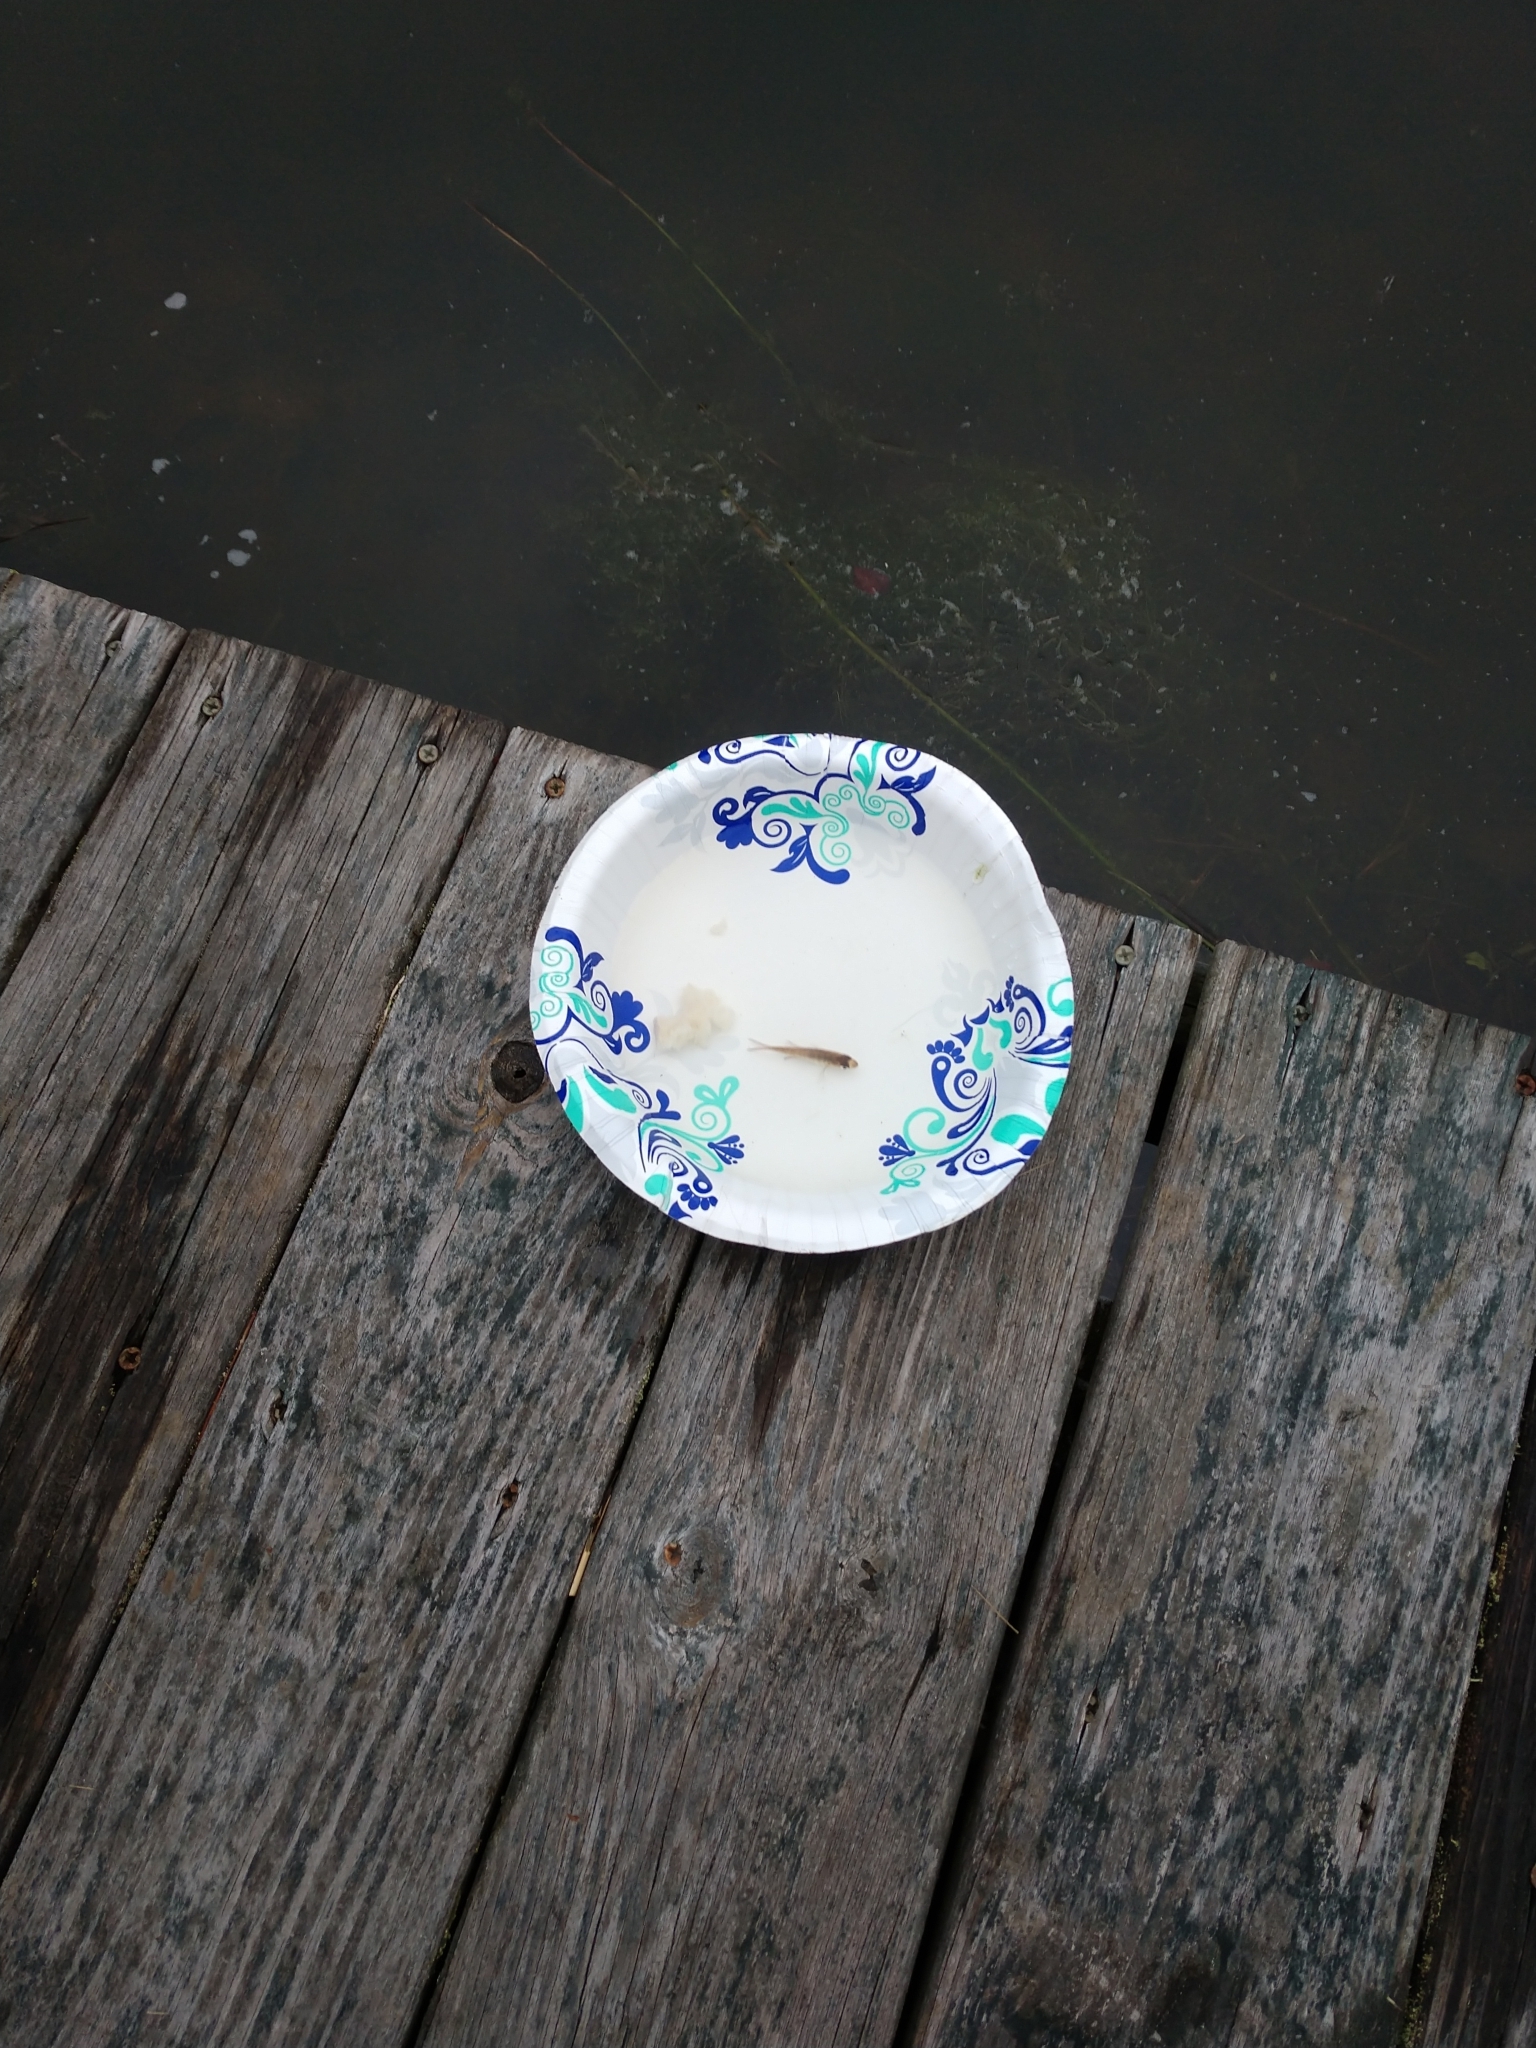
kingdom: Animalia
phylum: Chordata
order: Perciformes
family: Centrarchidae
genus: Lepomis
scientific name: Lepomis macrochirus
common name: Bluegill
